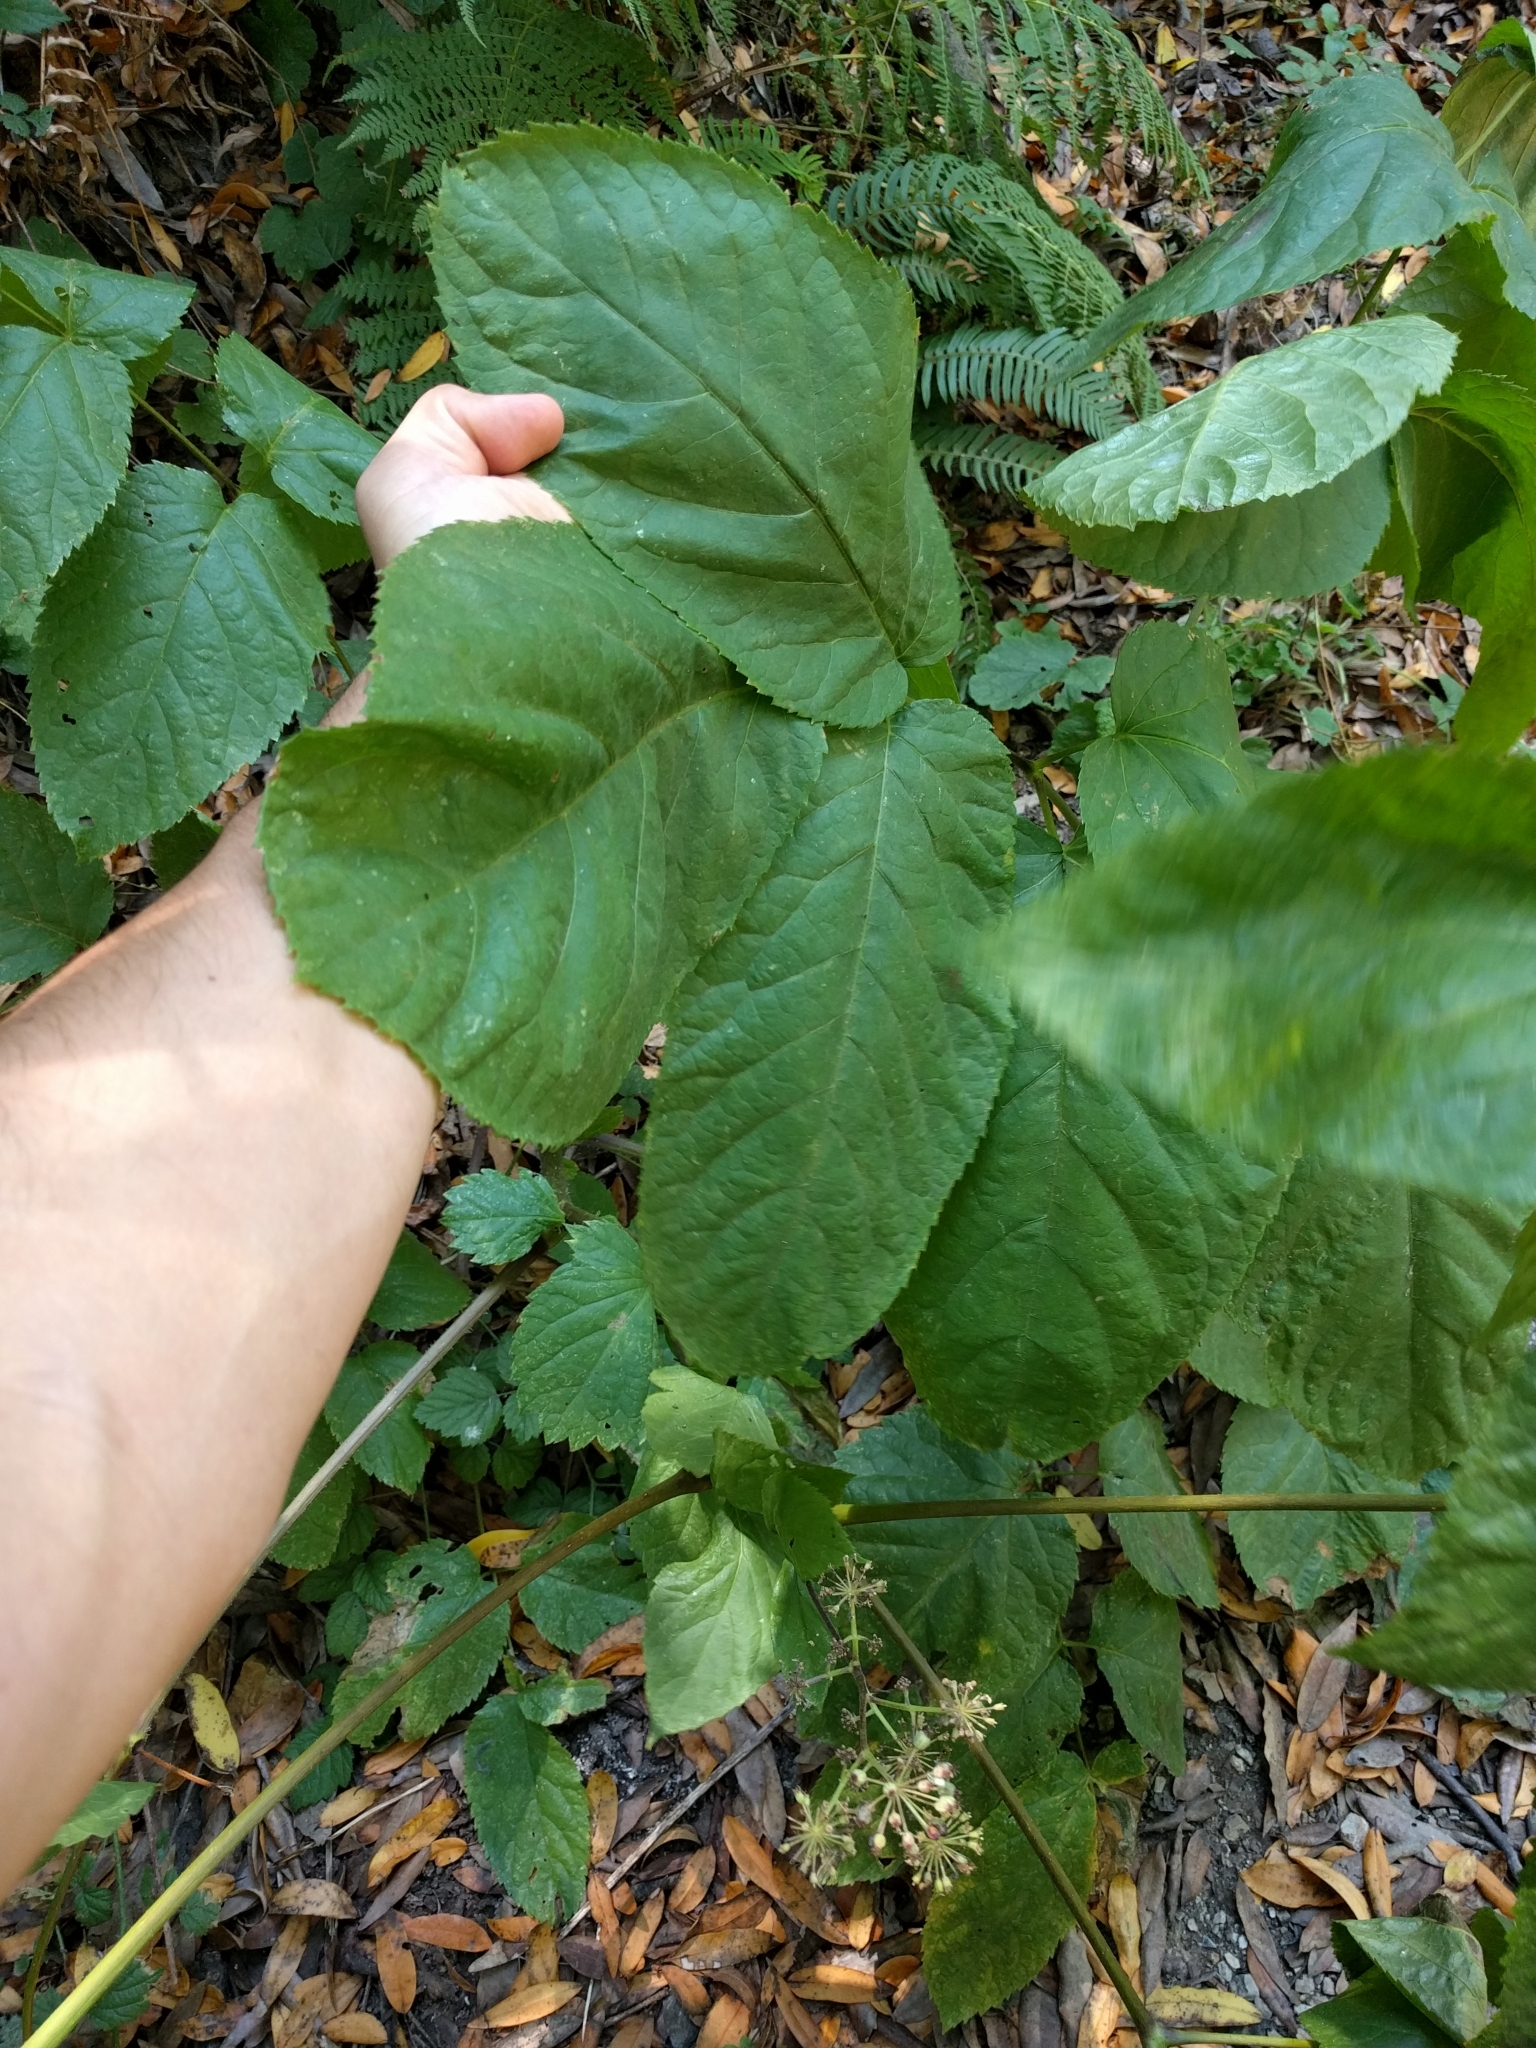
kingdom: Plantae
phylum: Tracheophyta
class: Magnoliopsida
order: Apiales
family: Araliaceae
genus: Aralia
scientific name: Aralia californica
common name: California-ginseng
